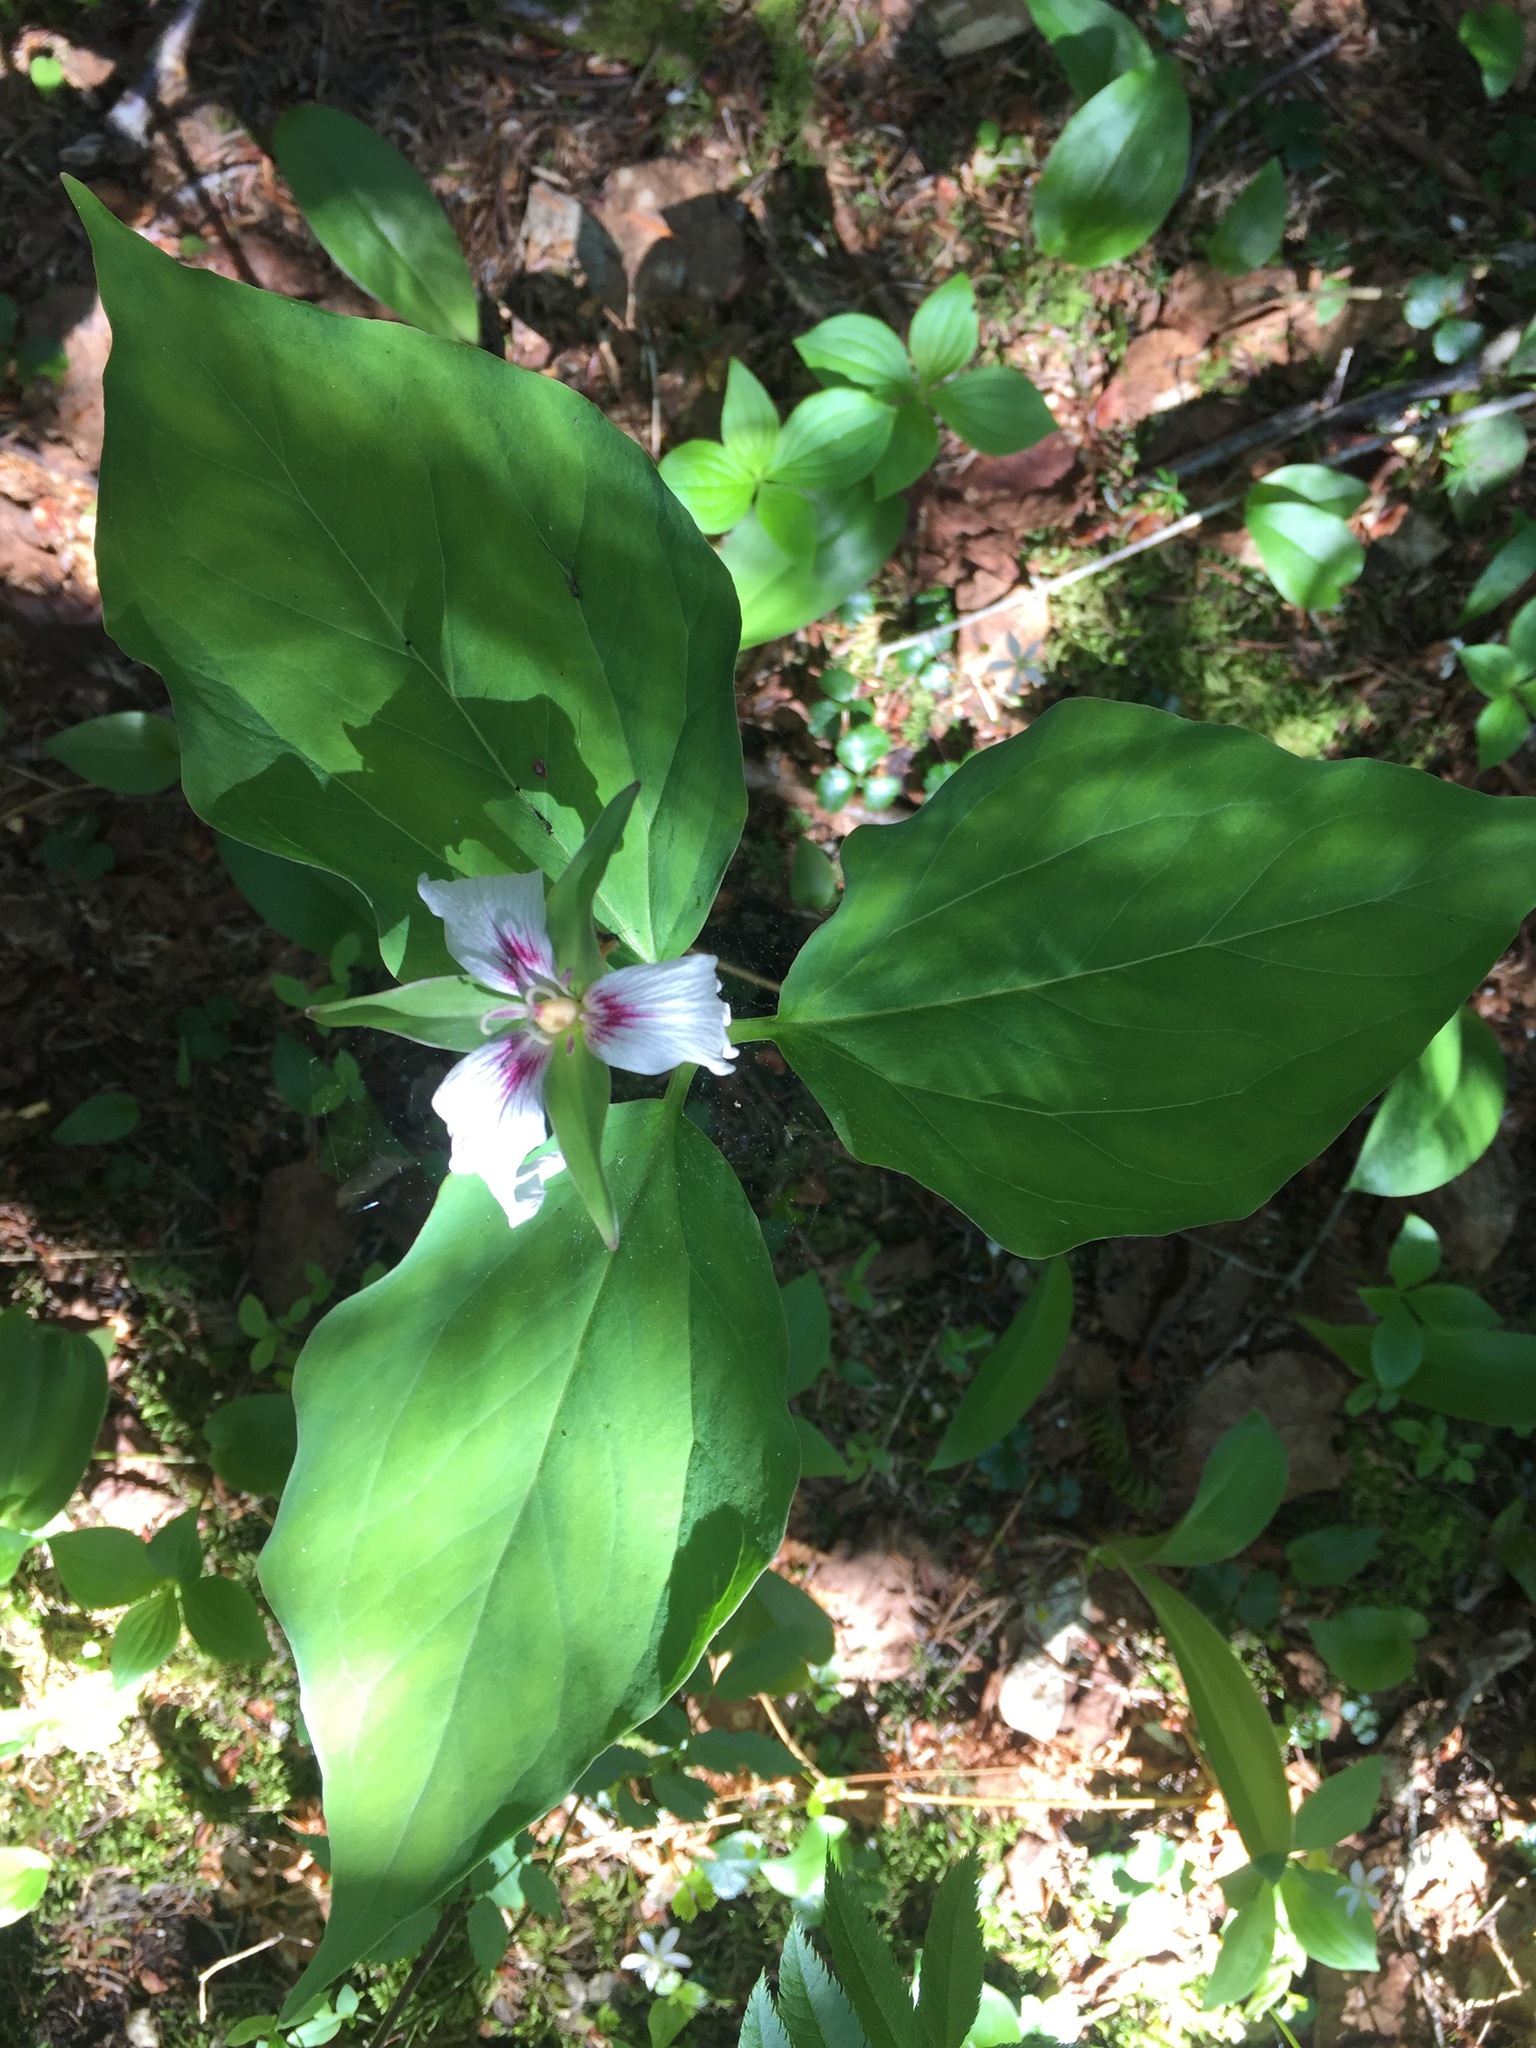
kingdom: Plantae
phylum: Tracheophyta
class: Liliopsida
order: Liliales
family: Melanthiaceae
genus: Trillium
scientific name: Trillium undulatum
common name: Paint trillium
